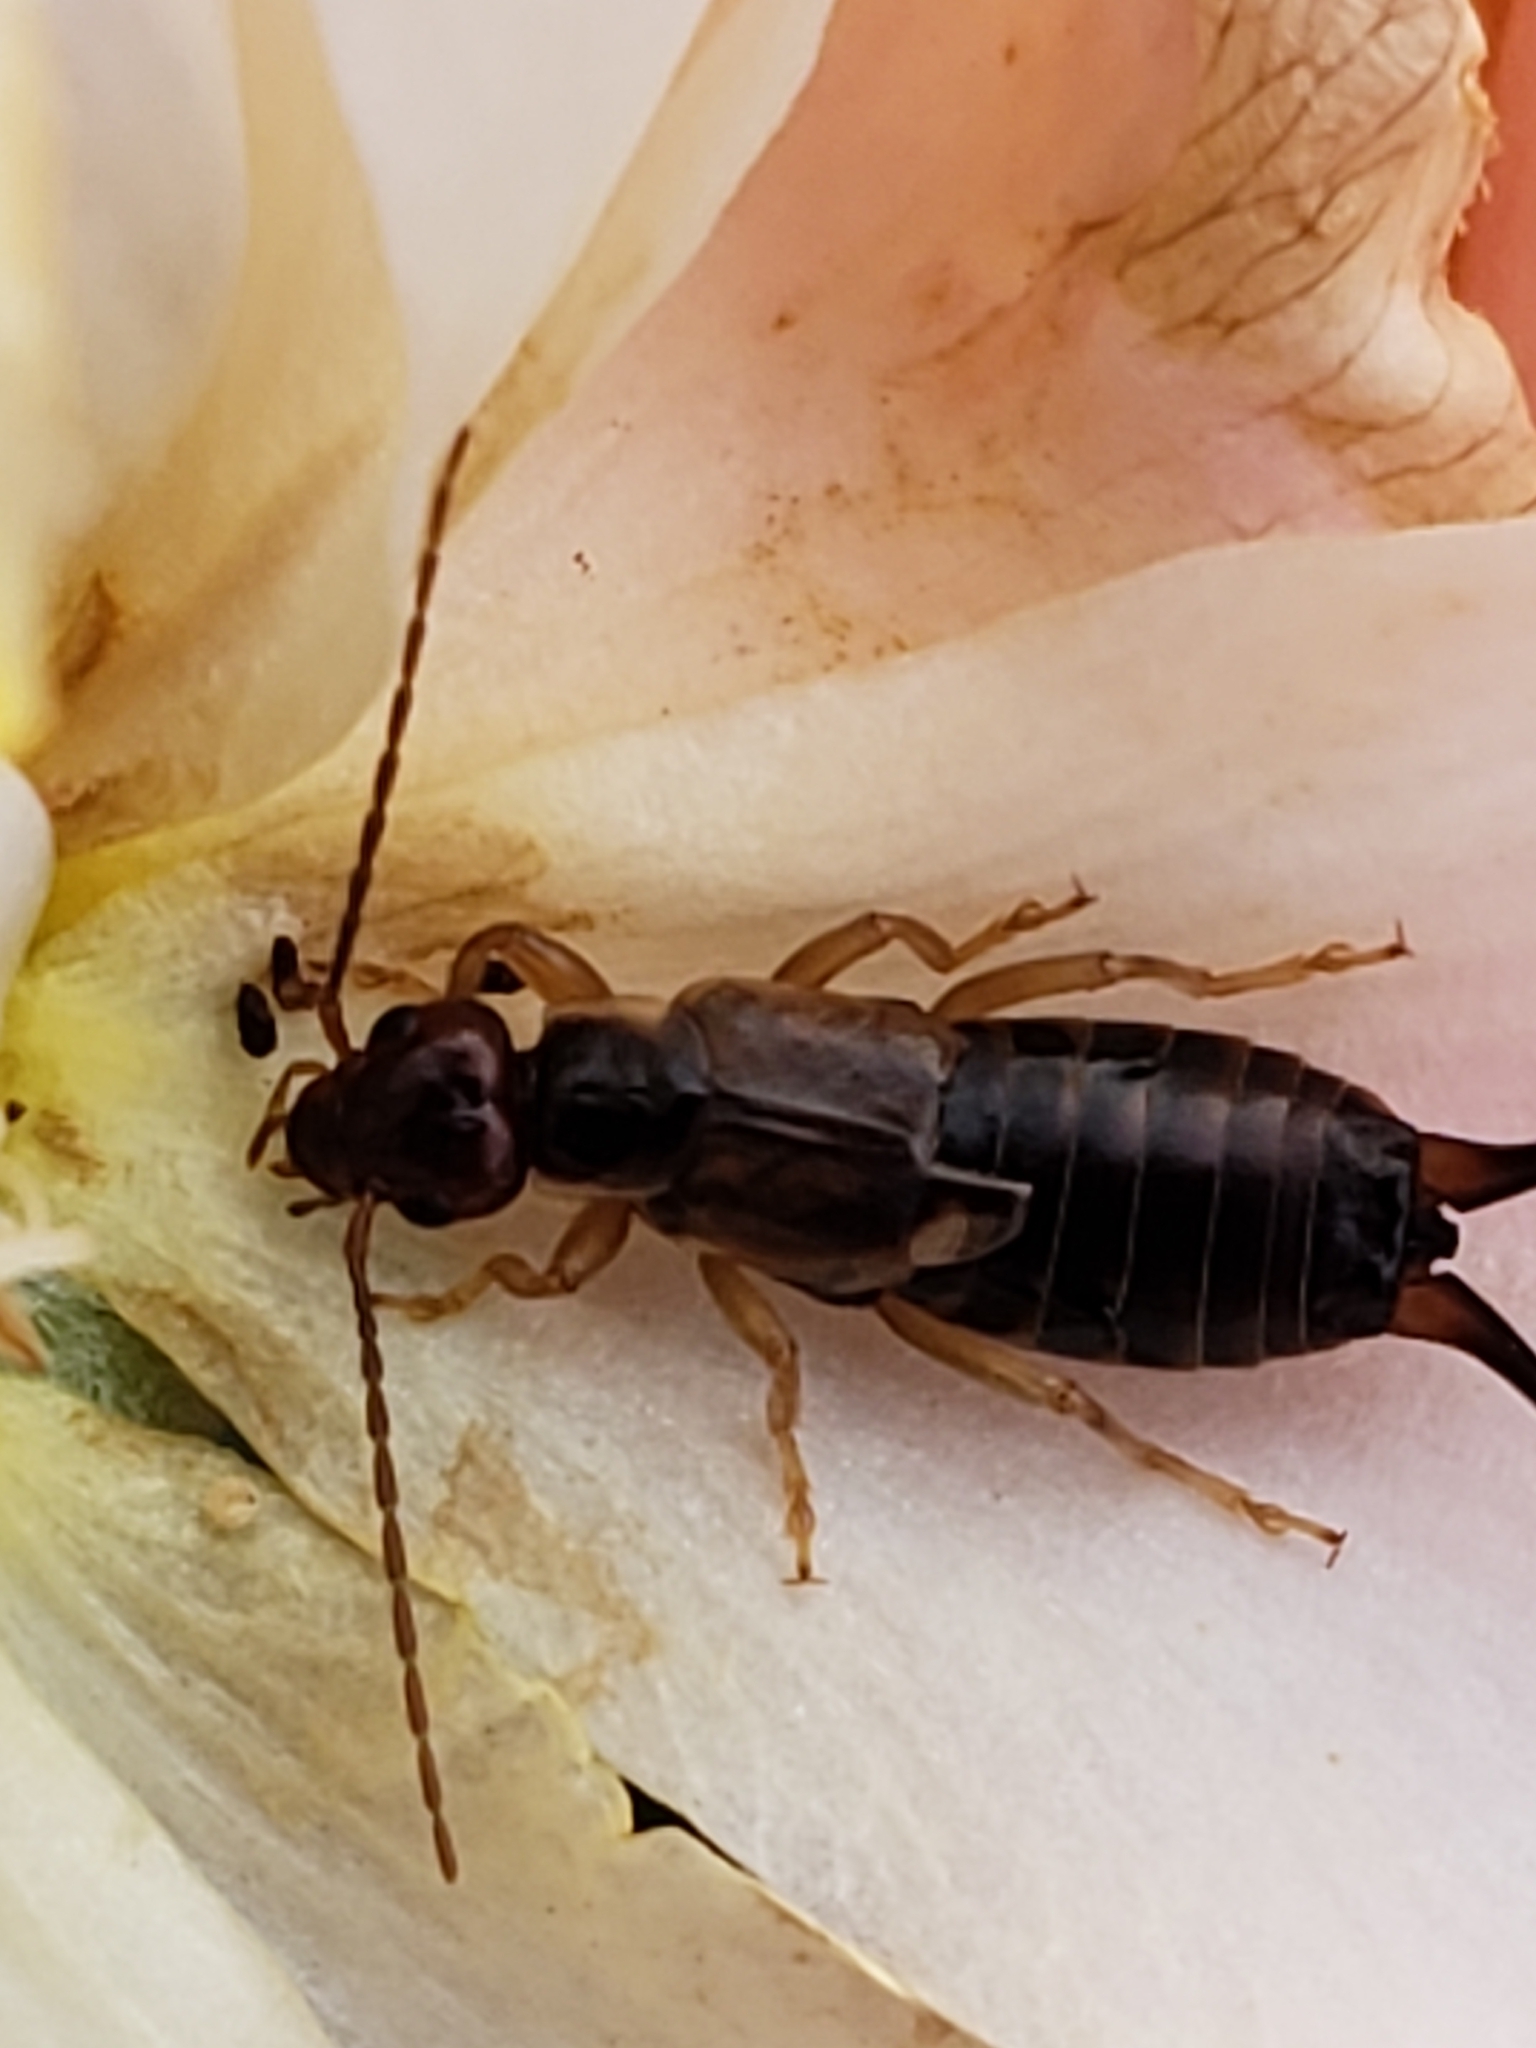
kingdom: Animalia
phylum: Arthropoda
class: Insecta
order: Dermaptera
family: Forficulidae
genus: Forficula
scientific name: Forficula
